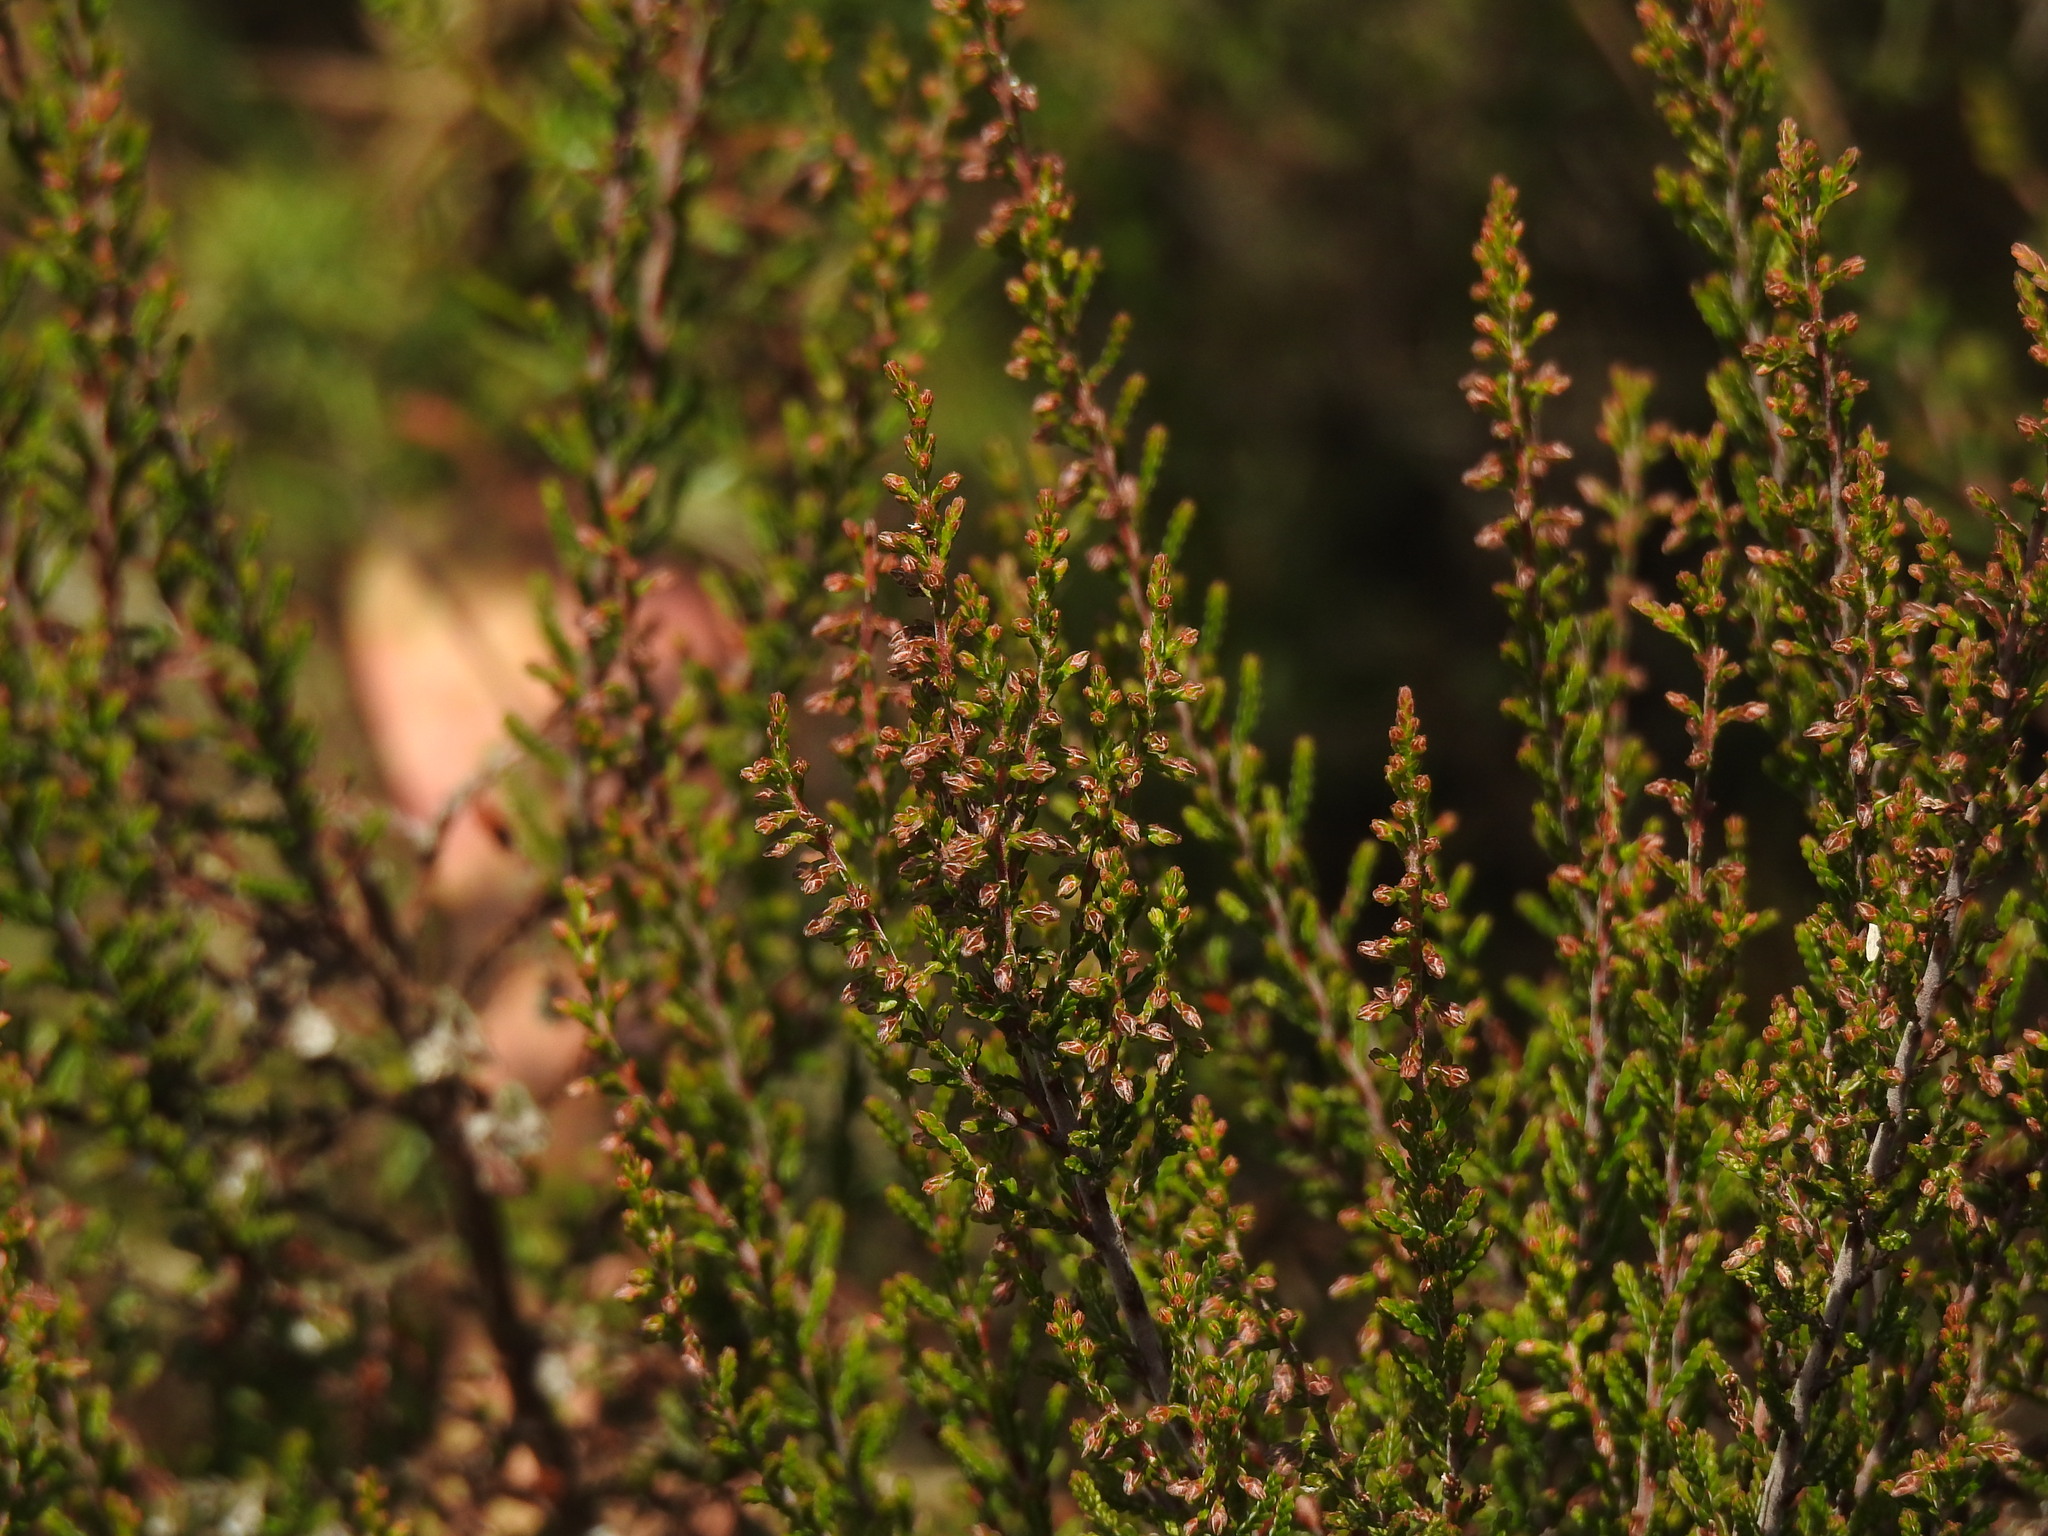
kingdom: Plantae
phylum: Tracheophyta
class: Magnoliopsida
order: Ericales
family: Ericaceae
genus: Calluna
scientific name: Calluna vulgaris
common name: Heather
